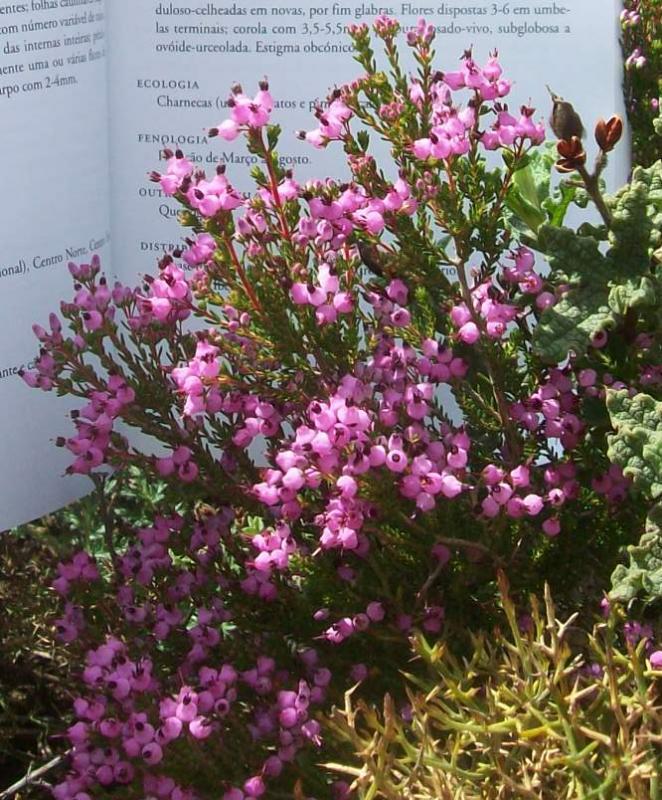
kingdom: Plantae
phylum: Tracheophyta
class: Magnoliopsida
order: Ericales
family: Ericaceae
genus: Erica
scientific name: Erica umbellata
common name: Dwarf spanish heath
